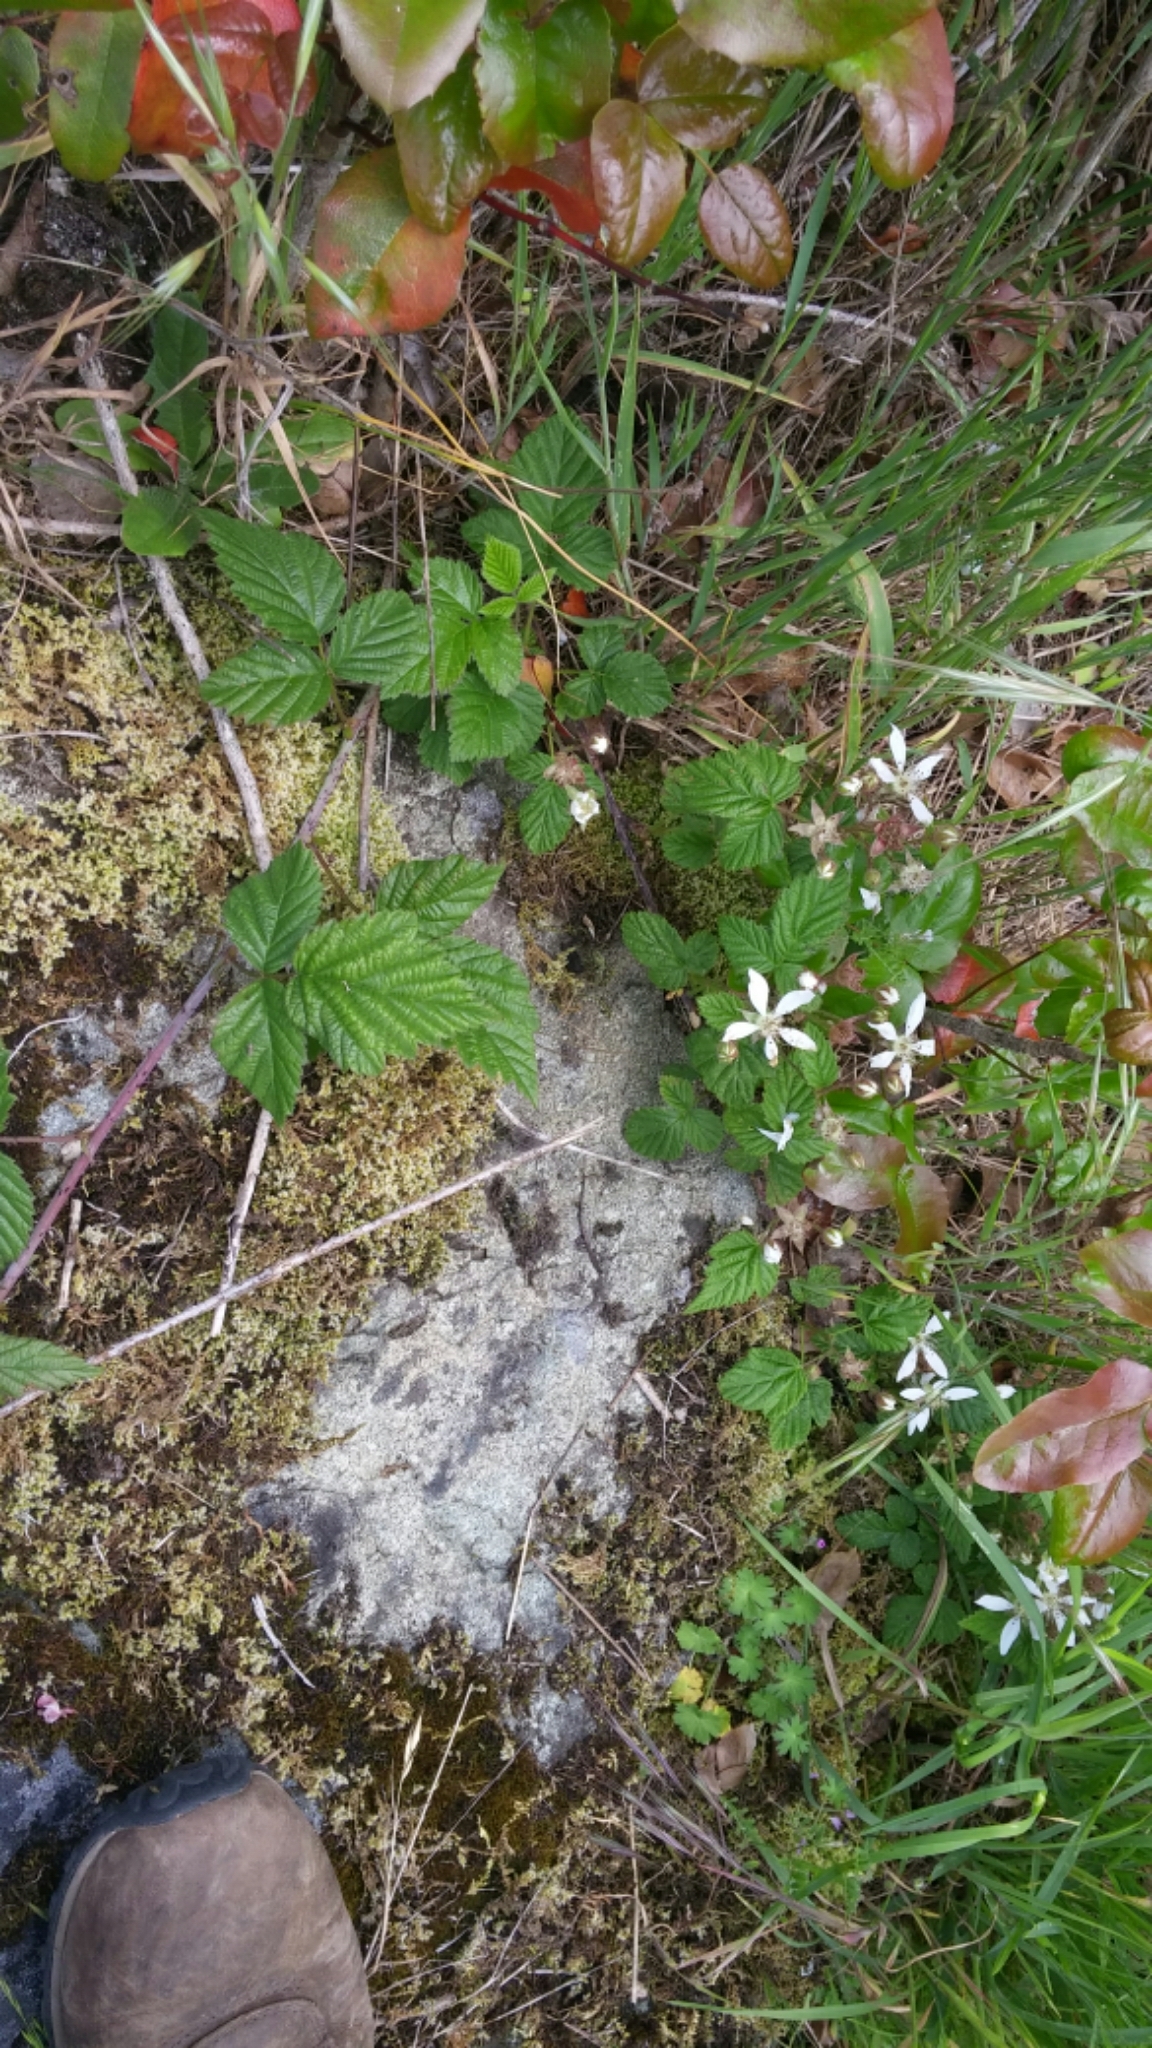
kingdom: Plantae
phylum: Tracheophyta
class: Magnoliopsida
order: Rosales
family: Rosaceae
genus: Rubus
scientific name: Rubus ursinus
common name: Pacific blackberry
